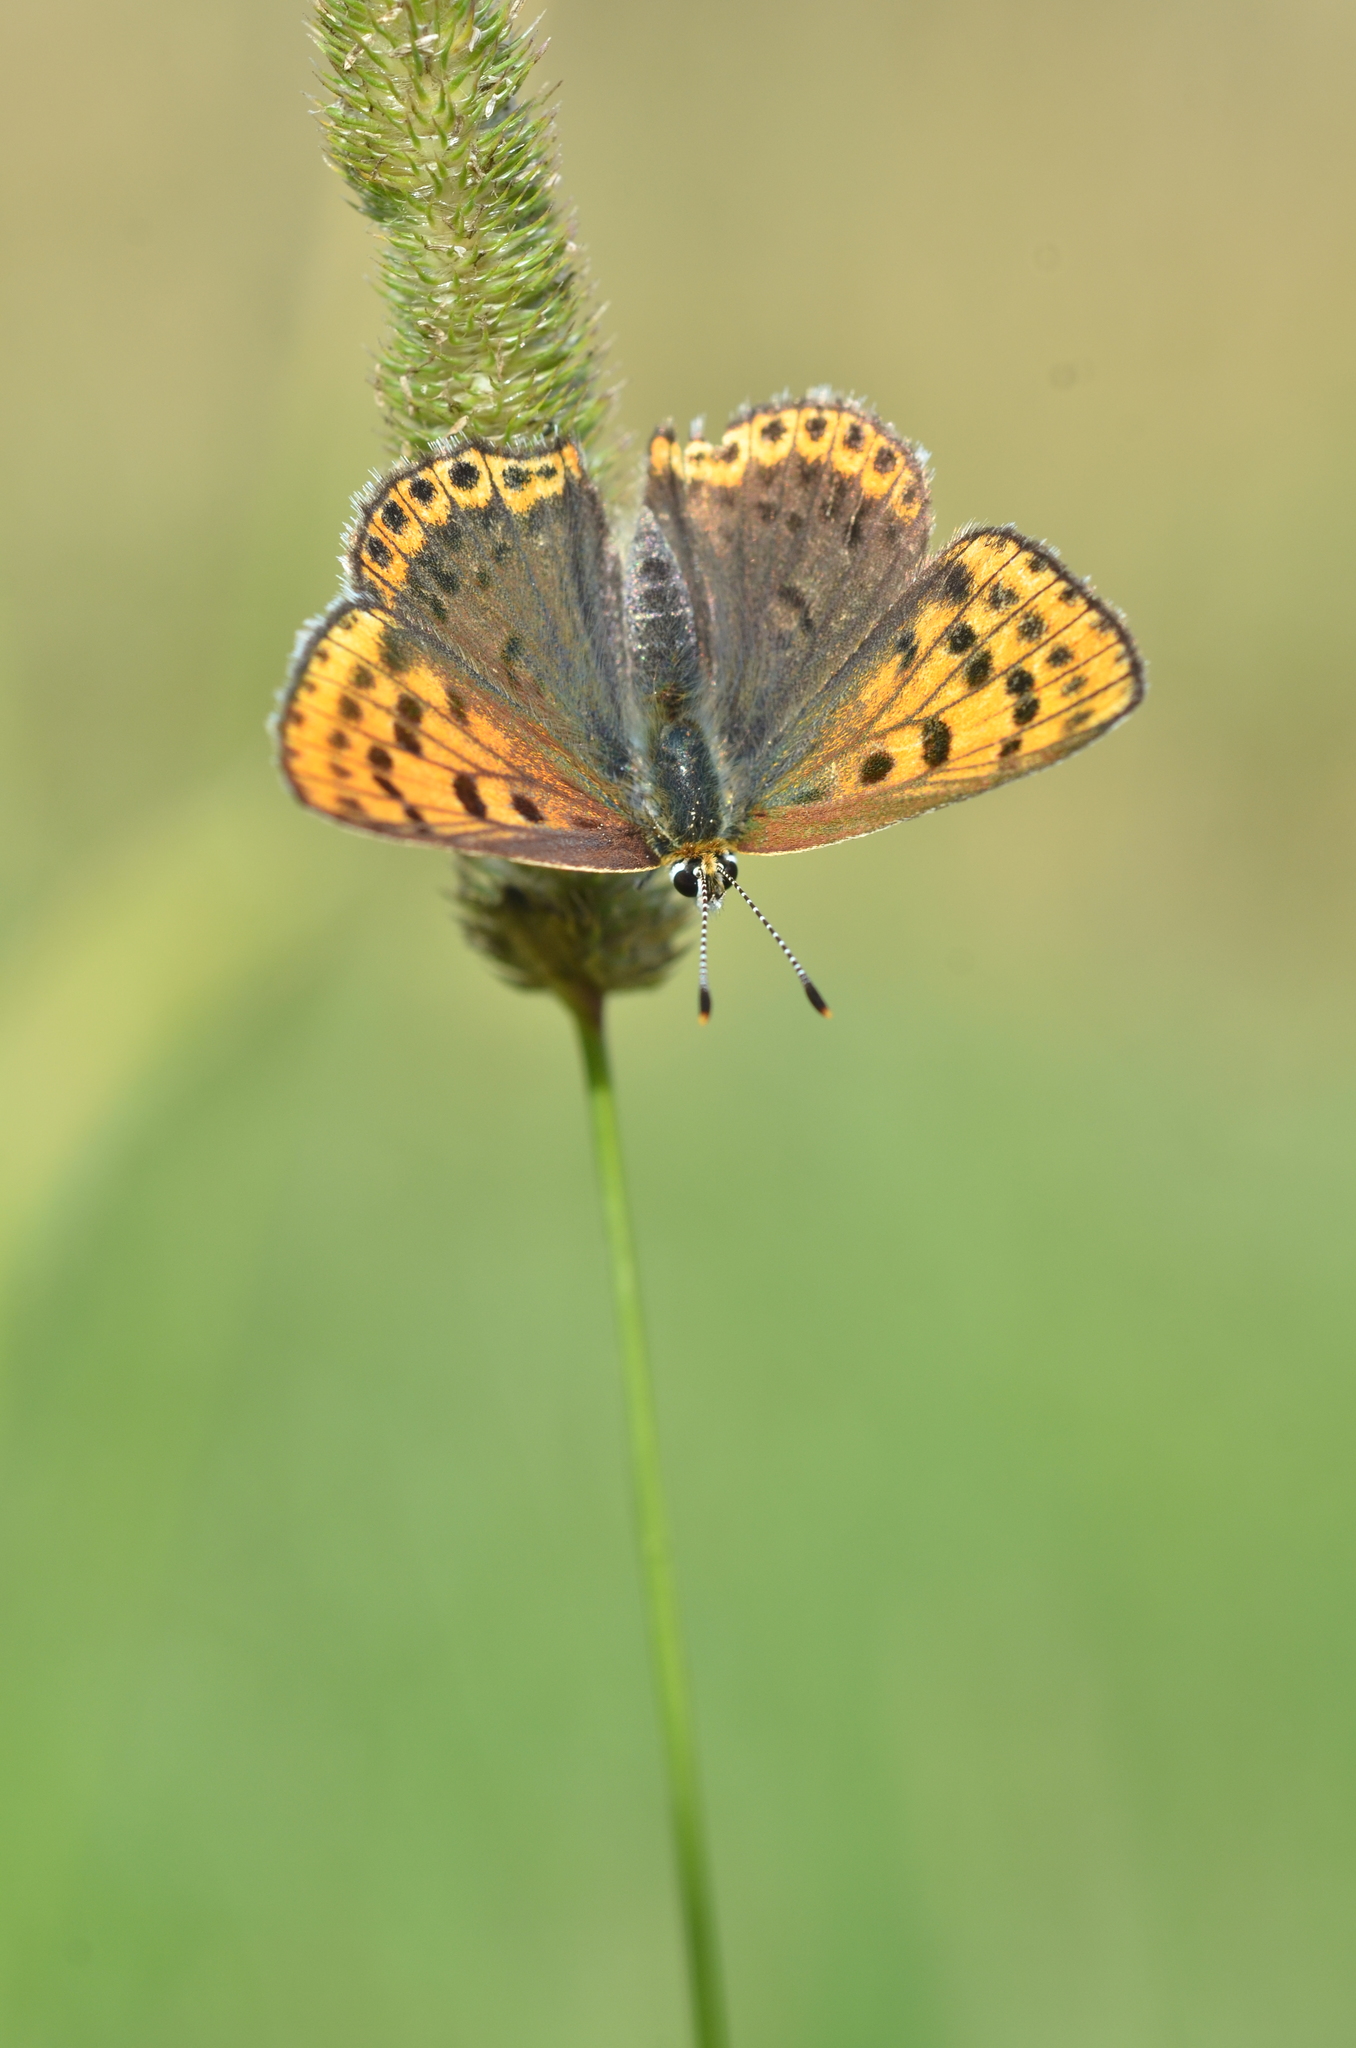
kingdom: Animalia
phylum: Arthropoda
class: Insecta
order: Lepidoptera
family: Lycaenidae
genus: Loweia
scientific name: Loweia tityrus
